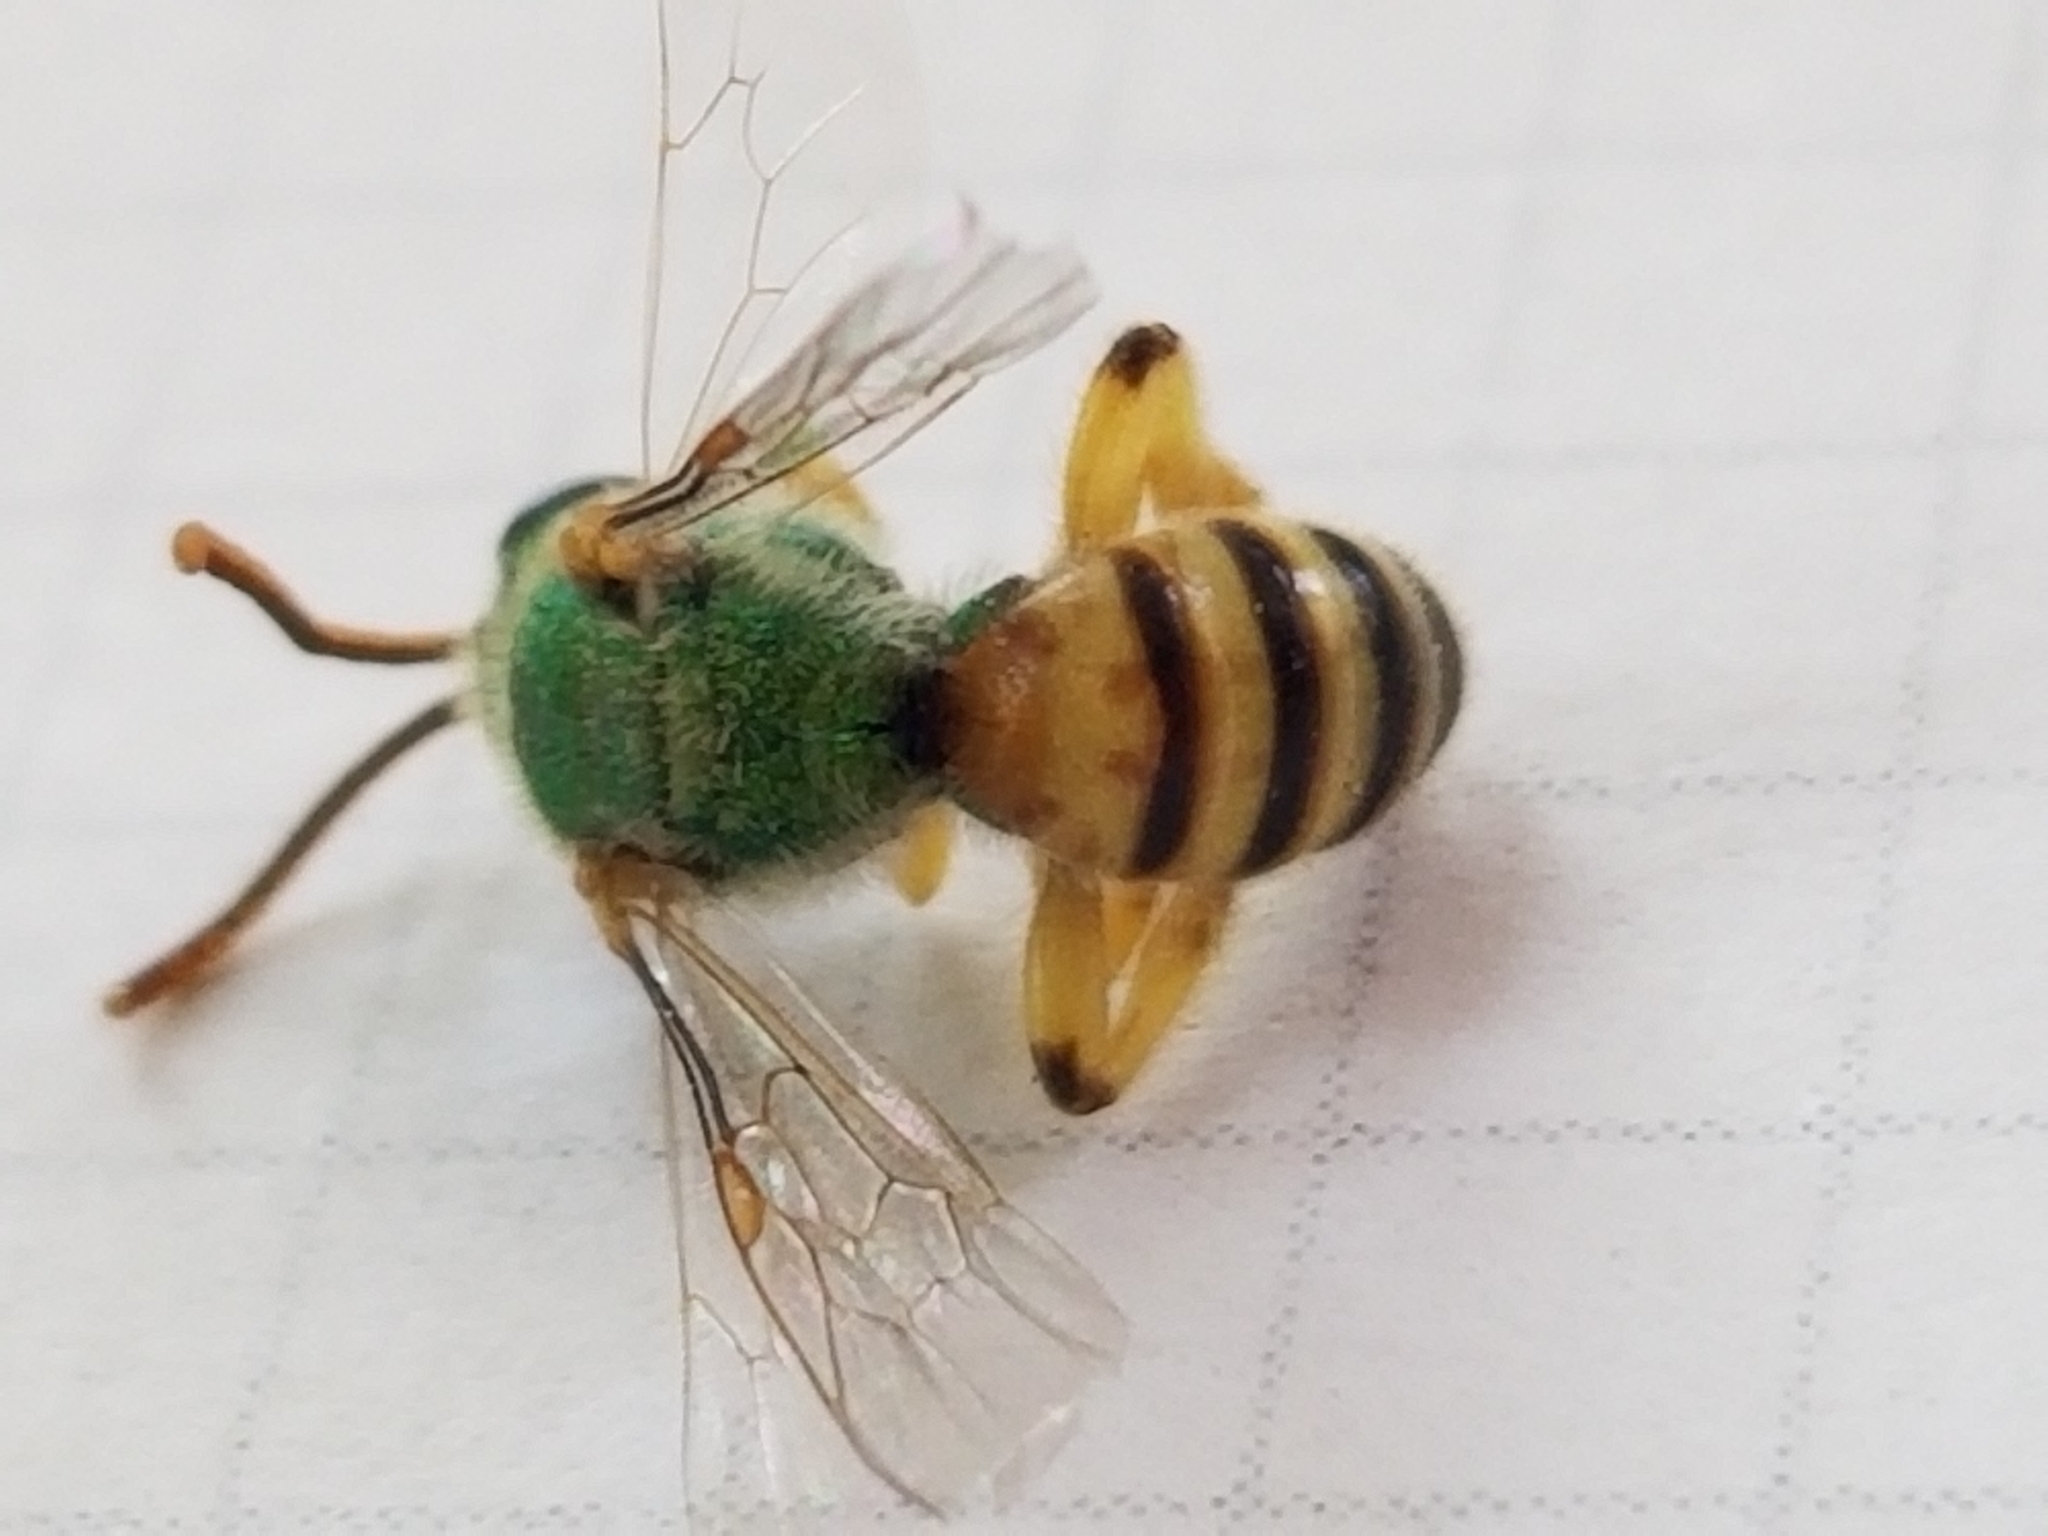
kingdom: Animalia
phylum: Arthropoda
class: Insecta
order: Hymenoptera
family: Halictidae
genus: Agapostemon
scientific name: Agapostemon melliventris
